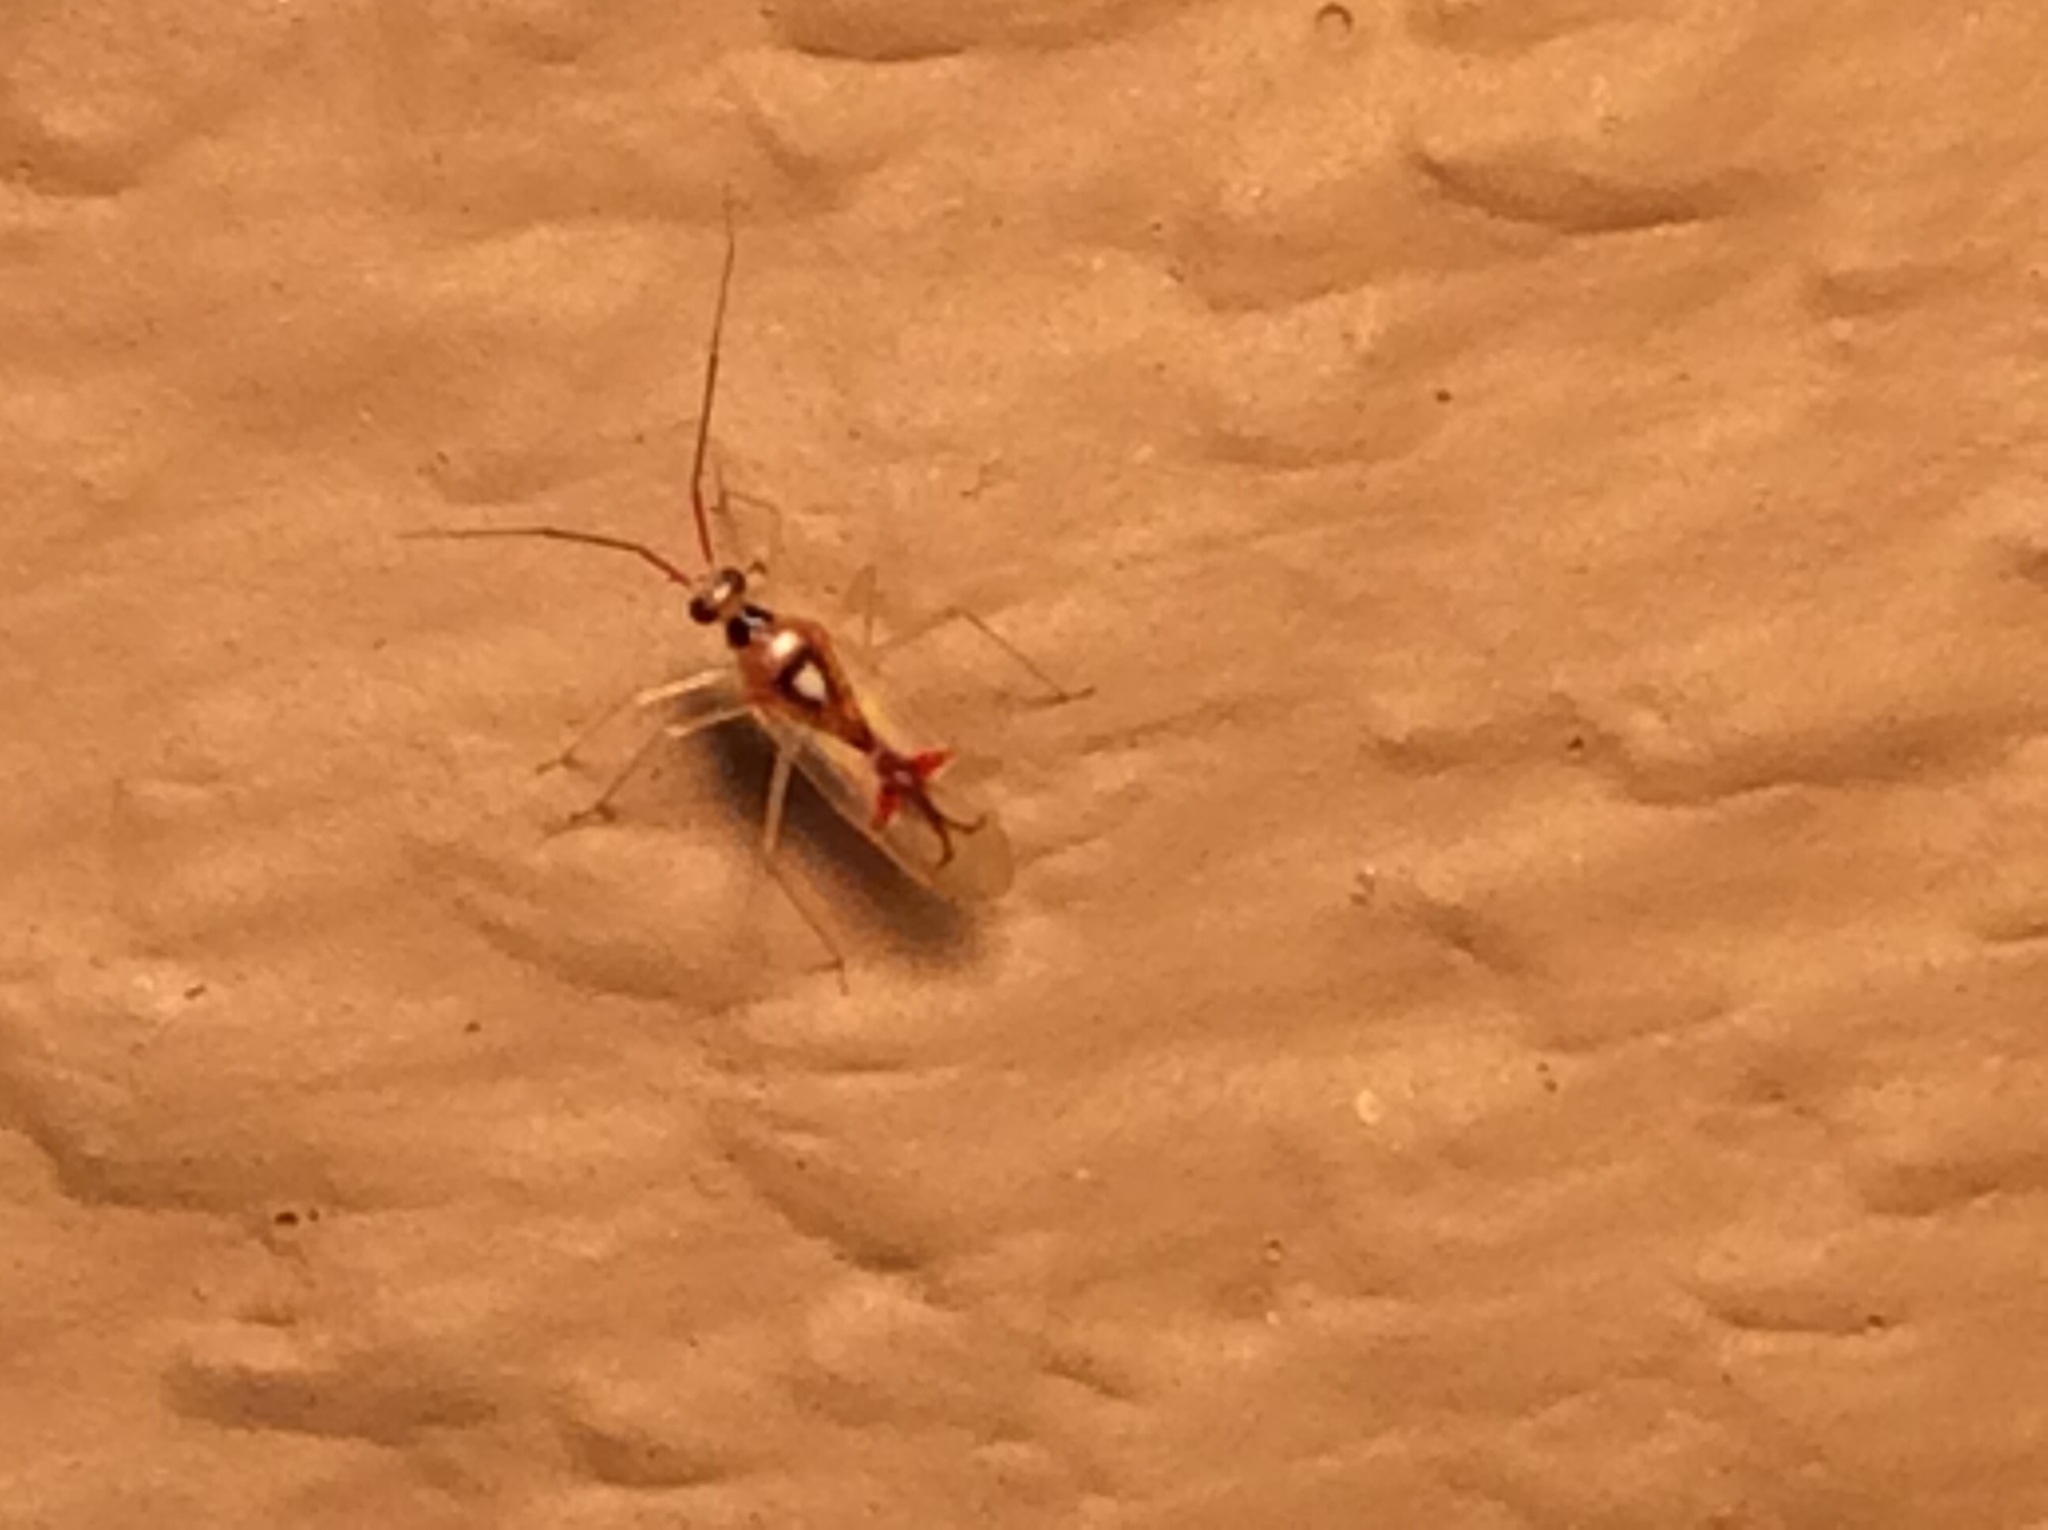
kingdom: Animalia
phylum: Arthropoda
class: Insecta
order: Hemiptera
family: Miridae
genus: Hyaliodes
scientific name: Hyaliodes harti
